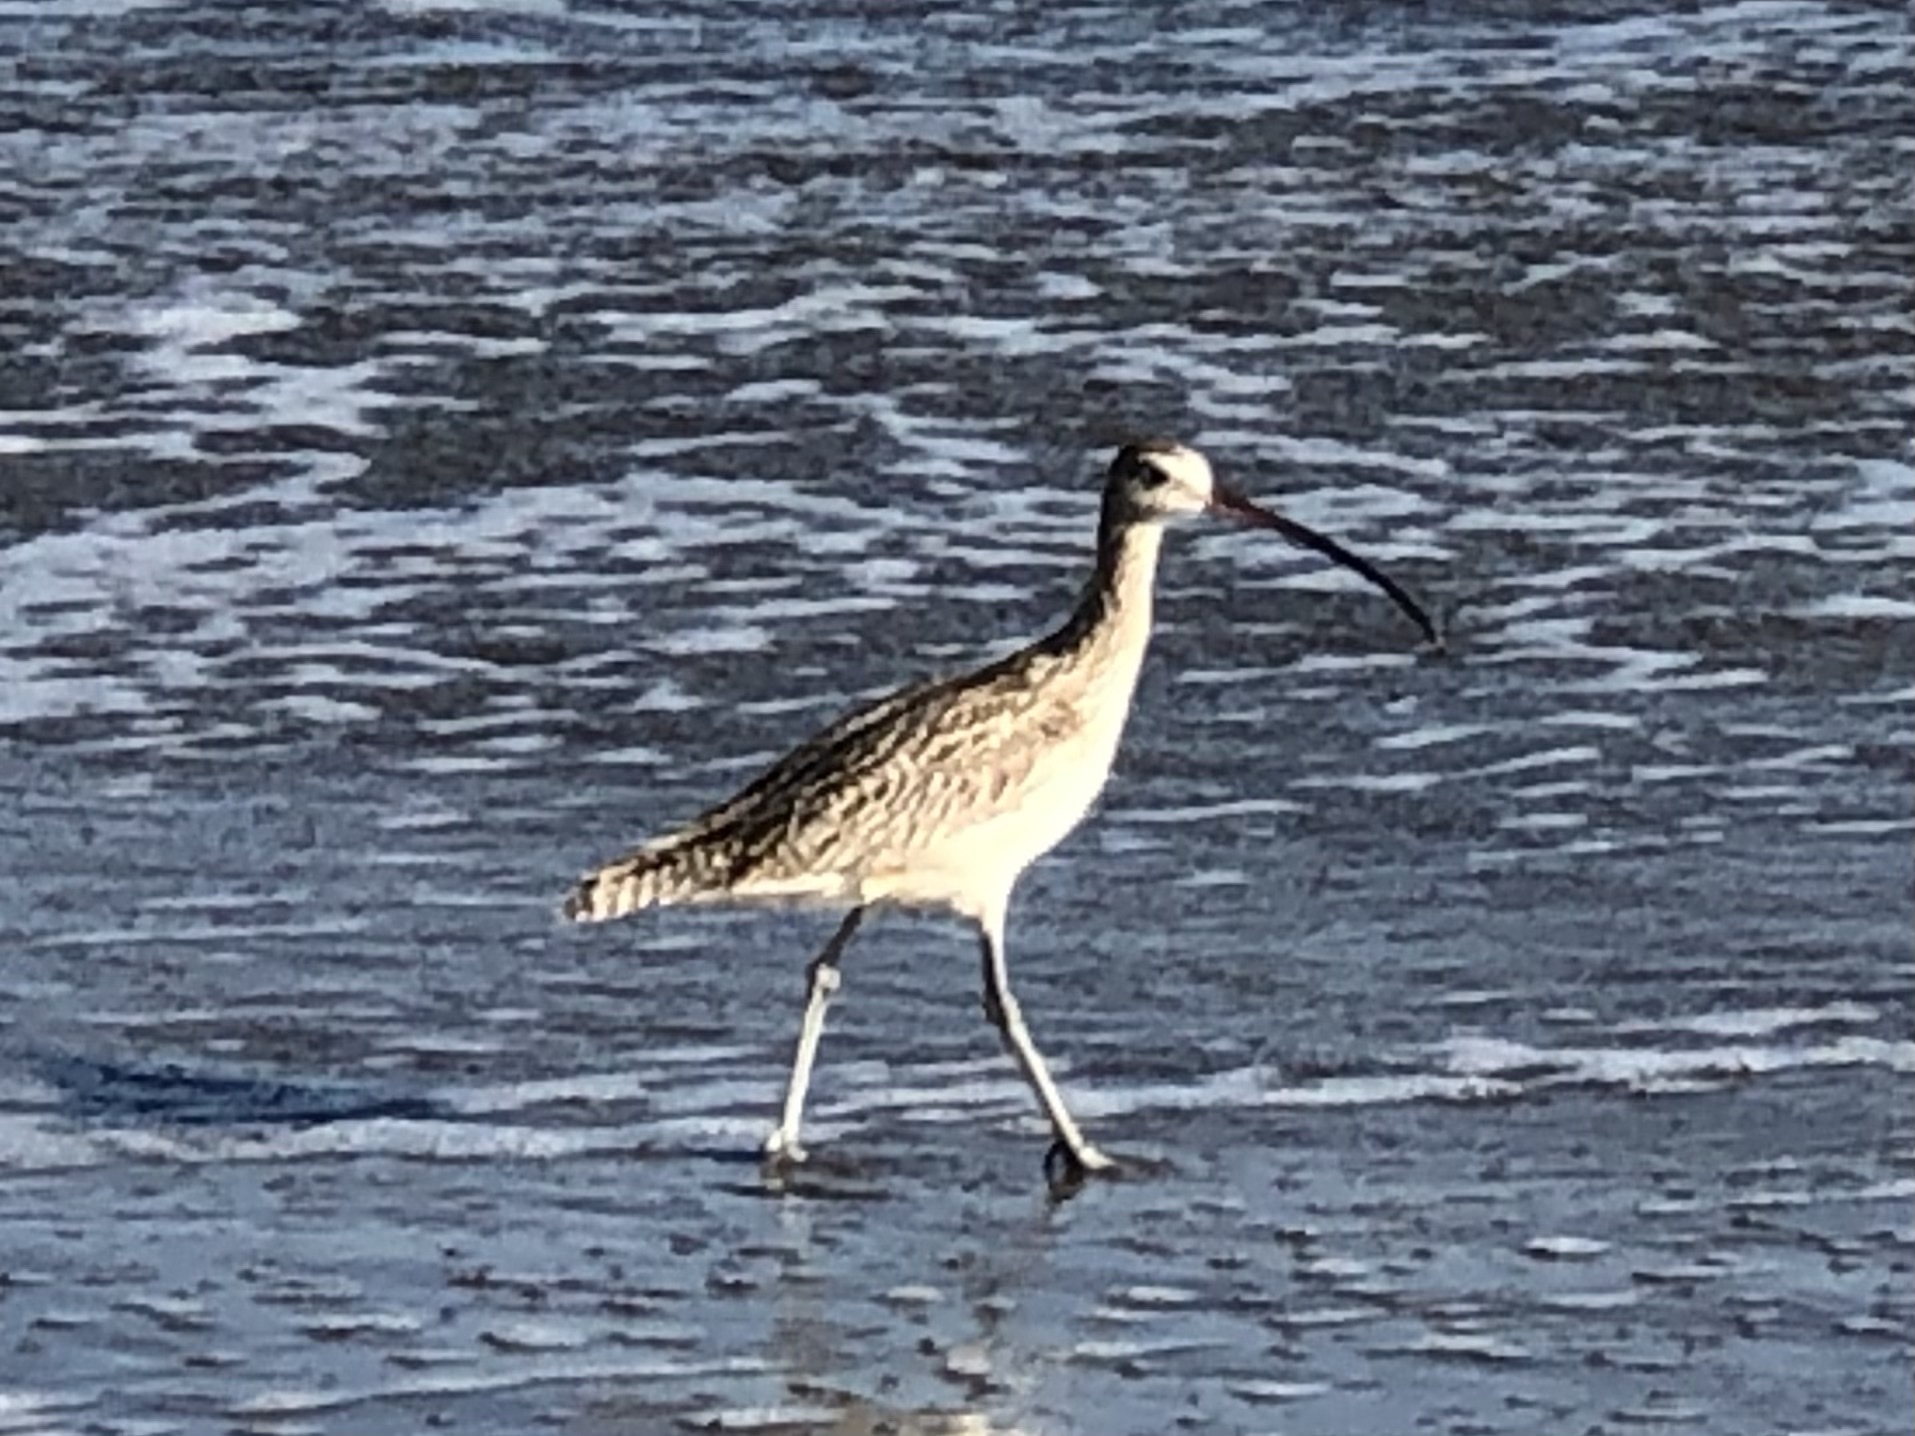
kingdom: Animalia
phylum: Chordata
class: Aves
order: Charadriiformes
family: Scolopacidae
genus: Numenius
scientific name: Numenius americanus
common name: Long-billed curlew
